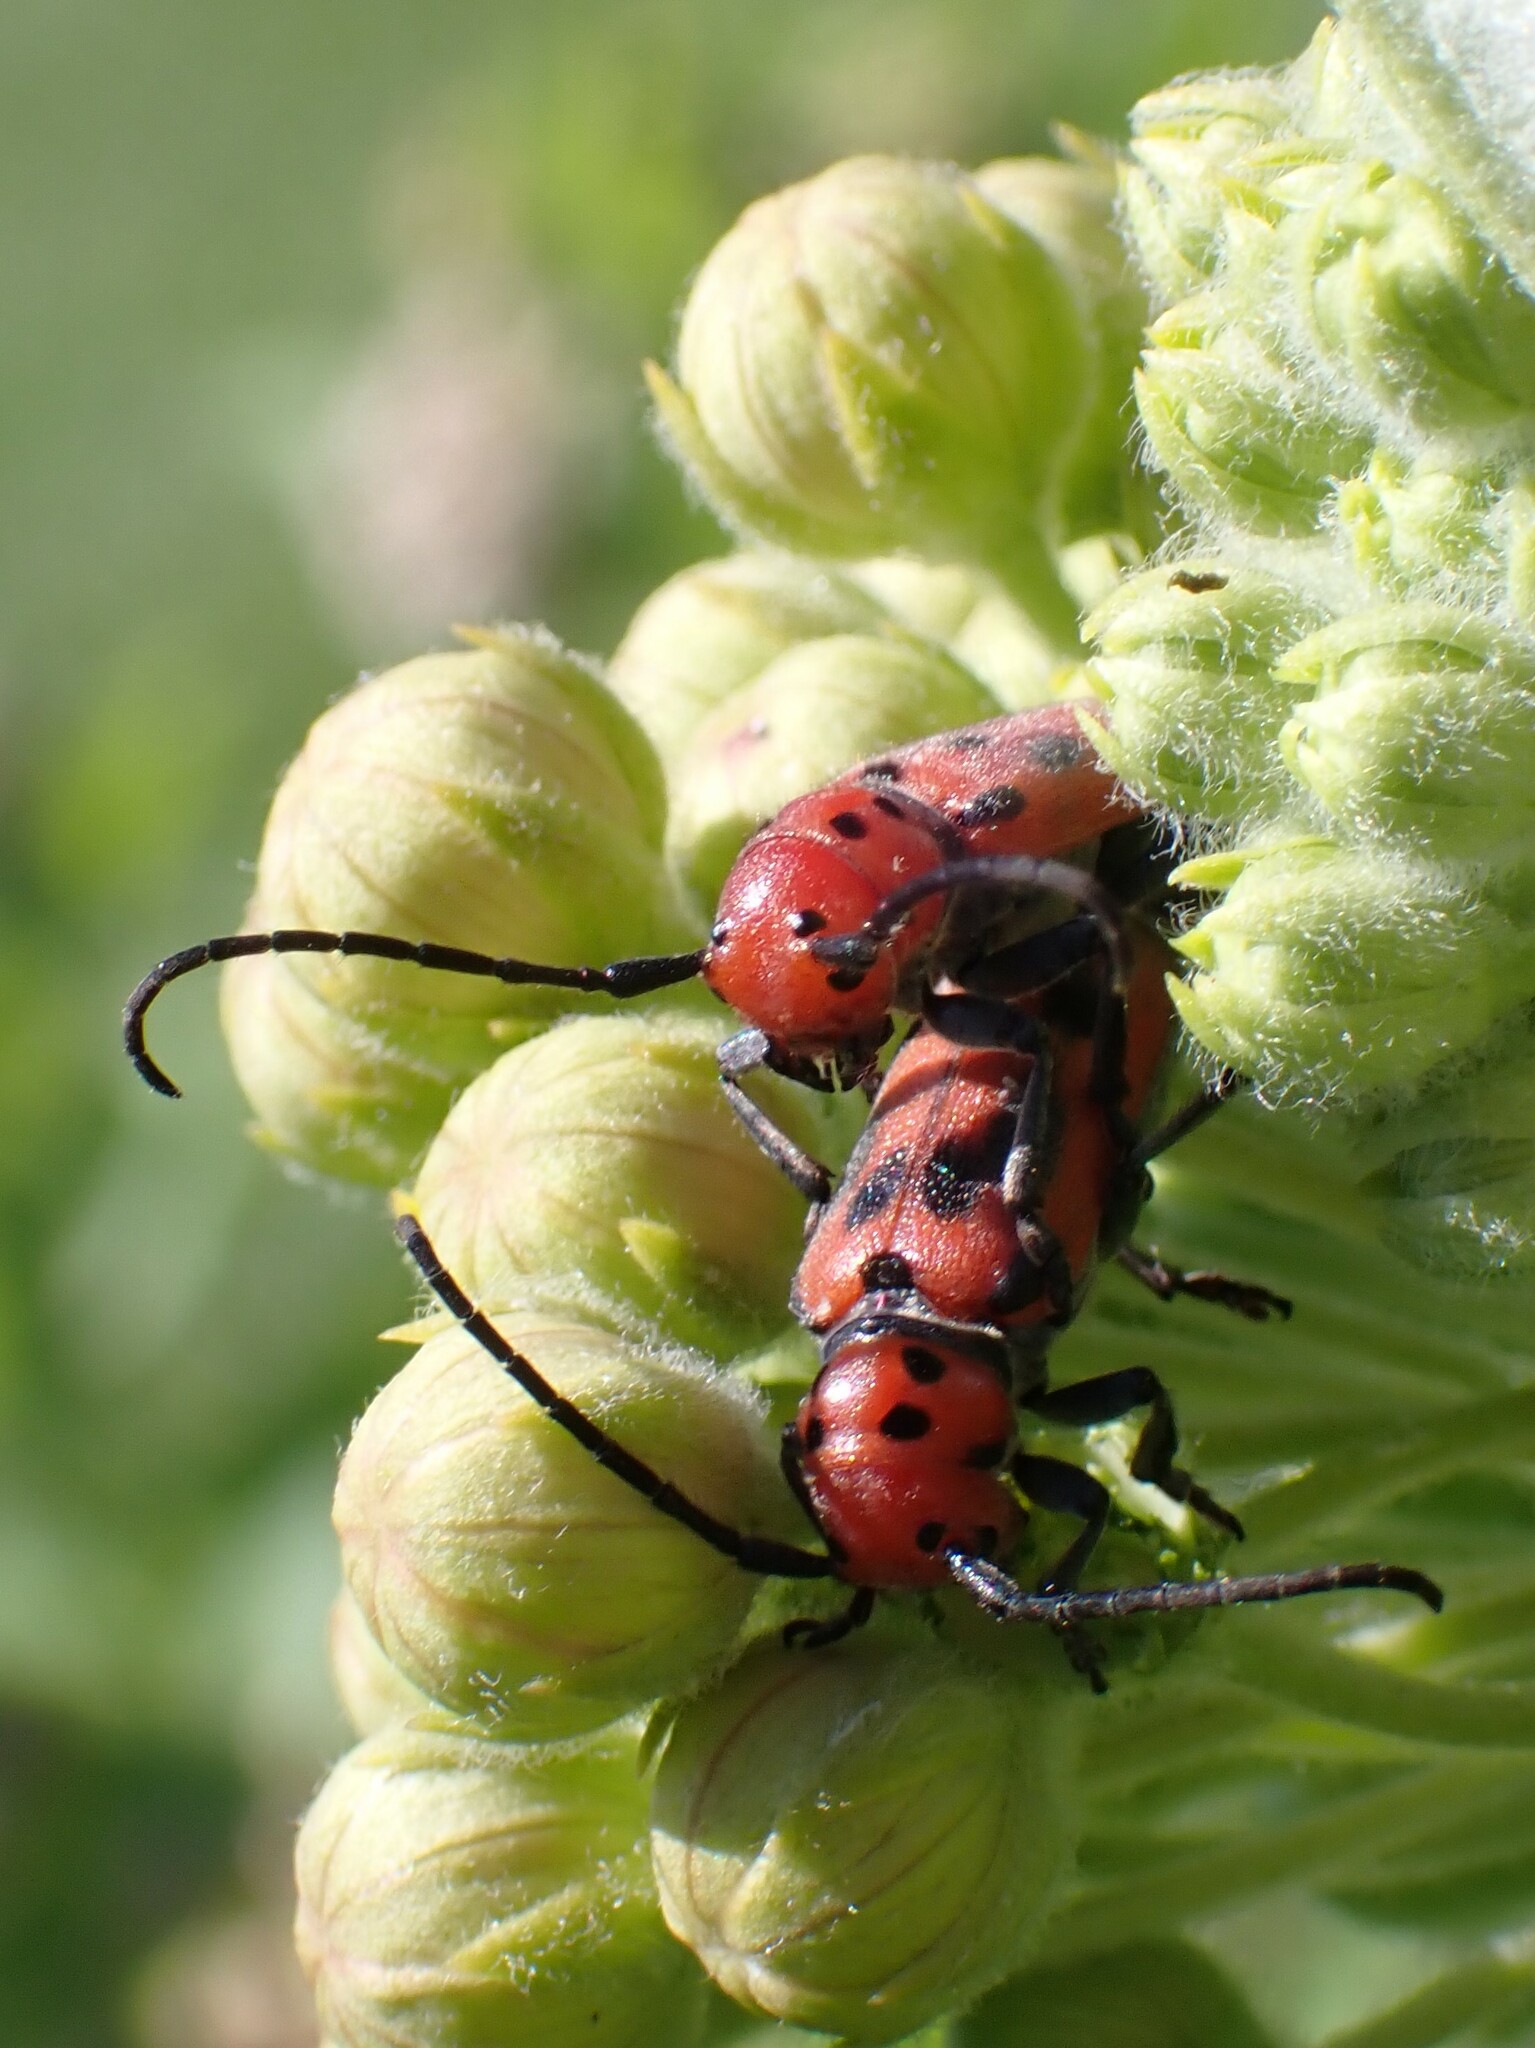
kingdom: Animalia
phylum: Arthropoda
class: Insecta
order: Coleoptera
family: Cerambycidae
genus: Tetraopes
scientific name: Tetraopes tetrophthalmus
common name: Red milkweed beetle
